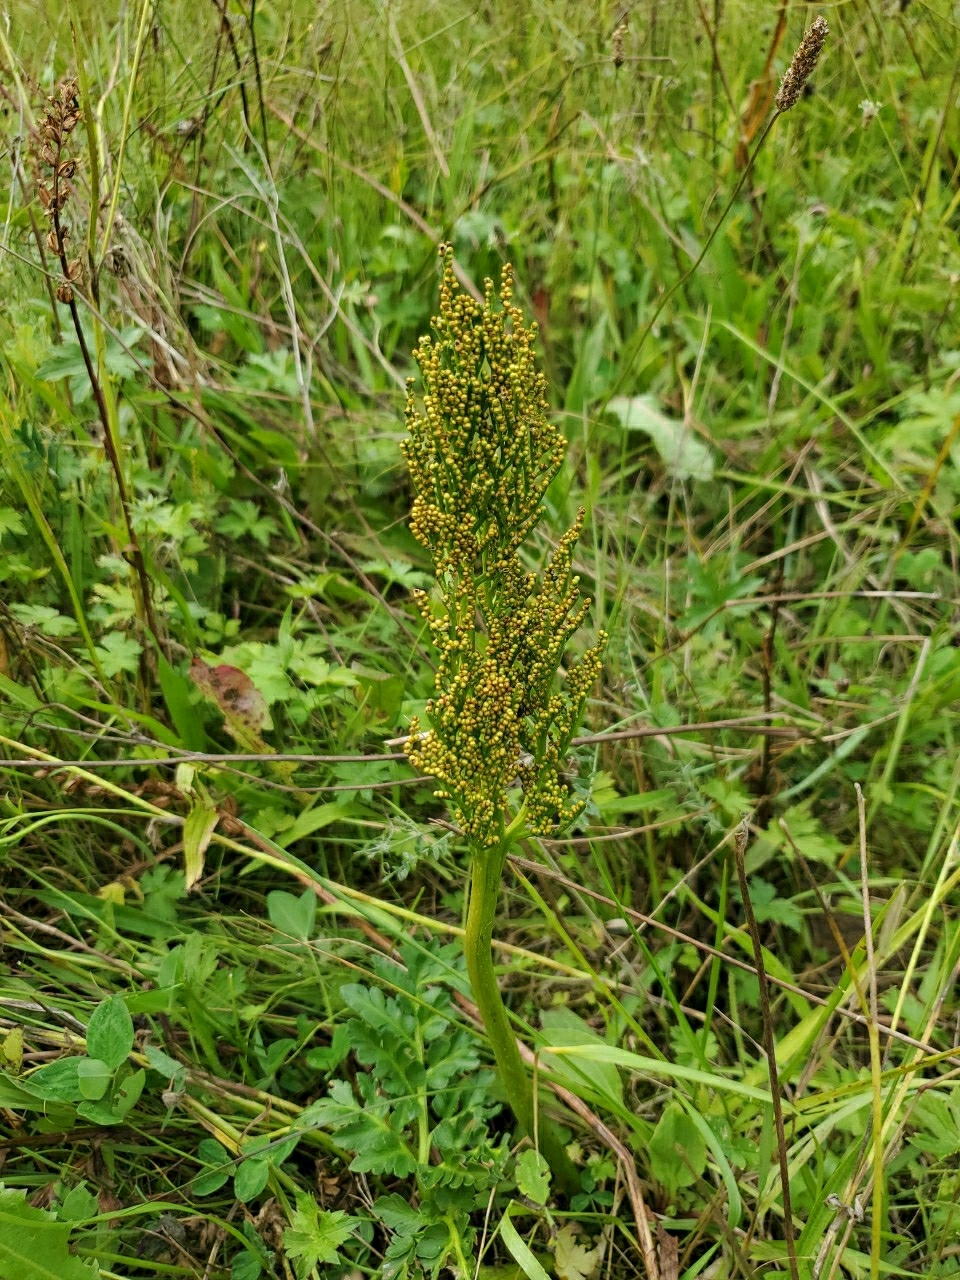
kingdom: Plantae
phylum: Tracheophyta
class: Polypodiopsida
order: Ophioglossales
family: Ophioglossaceae
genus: Sceptridium
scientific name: Sceptridium multifidum
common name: Leathery grape fern
